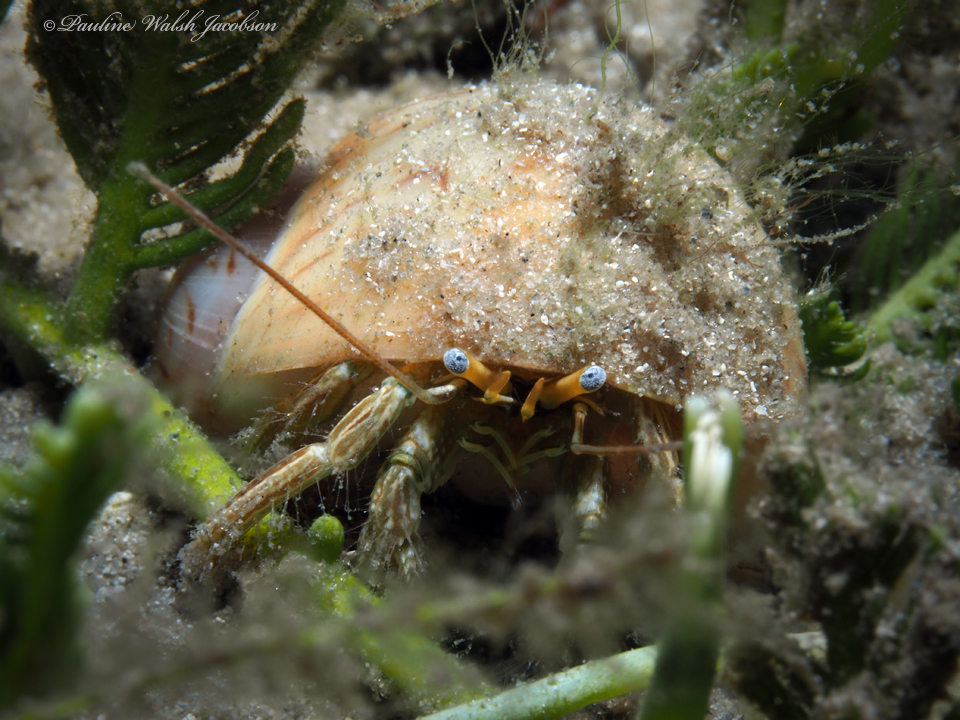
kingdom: Animalia
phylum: Arthropoda
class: Malacostraca
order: Decapoda
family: Diogenidae
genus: Clibanarius
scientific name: Clibanarius vittatus
